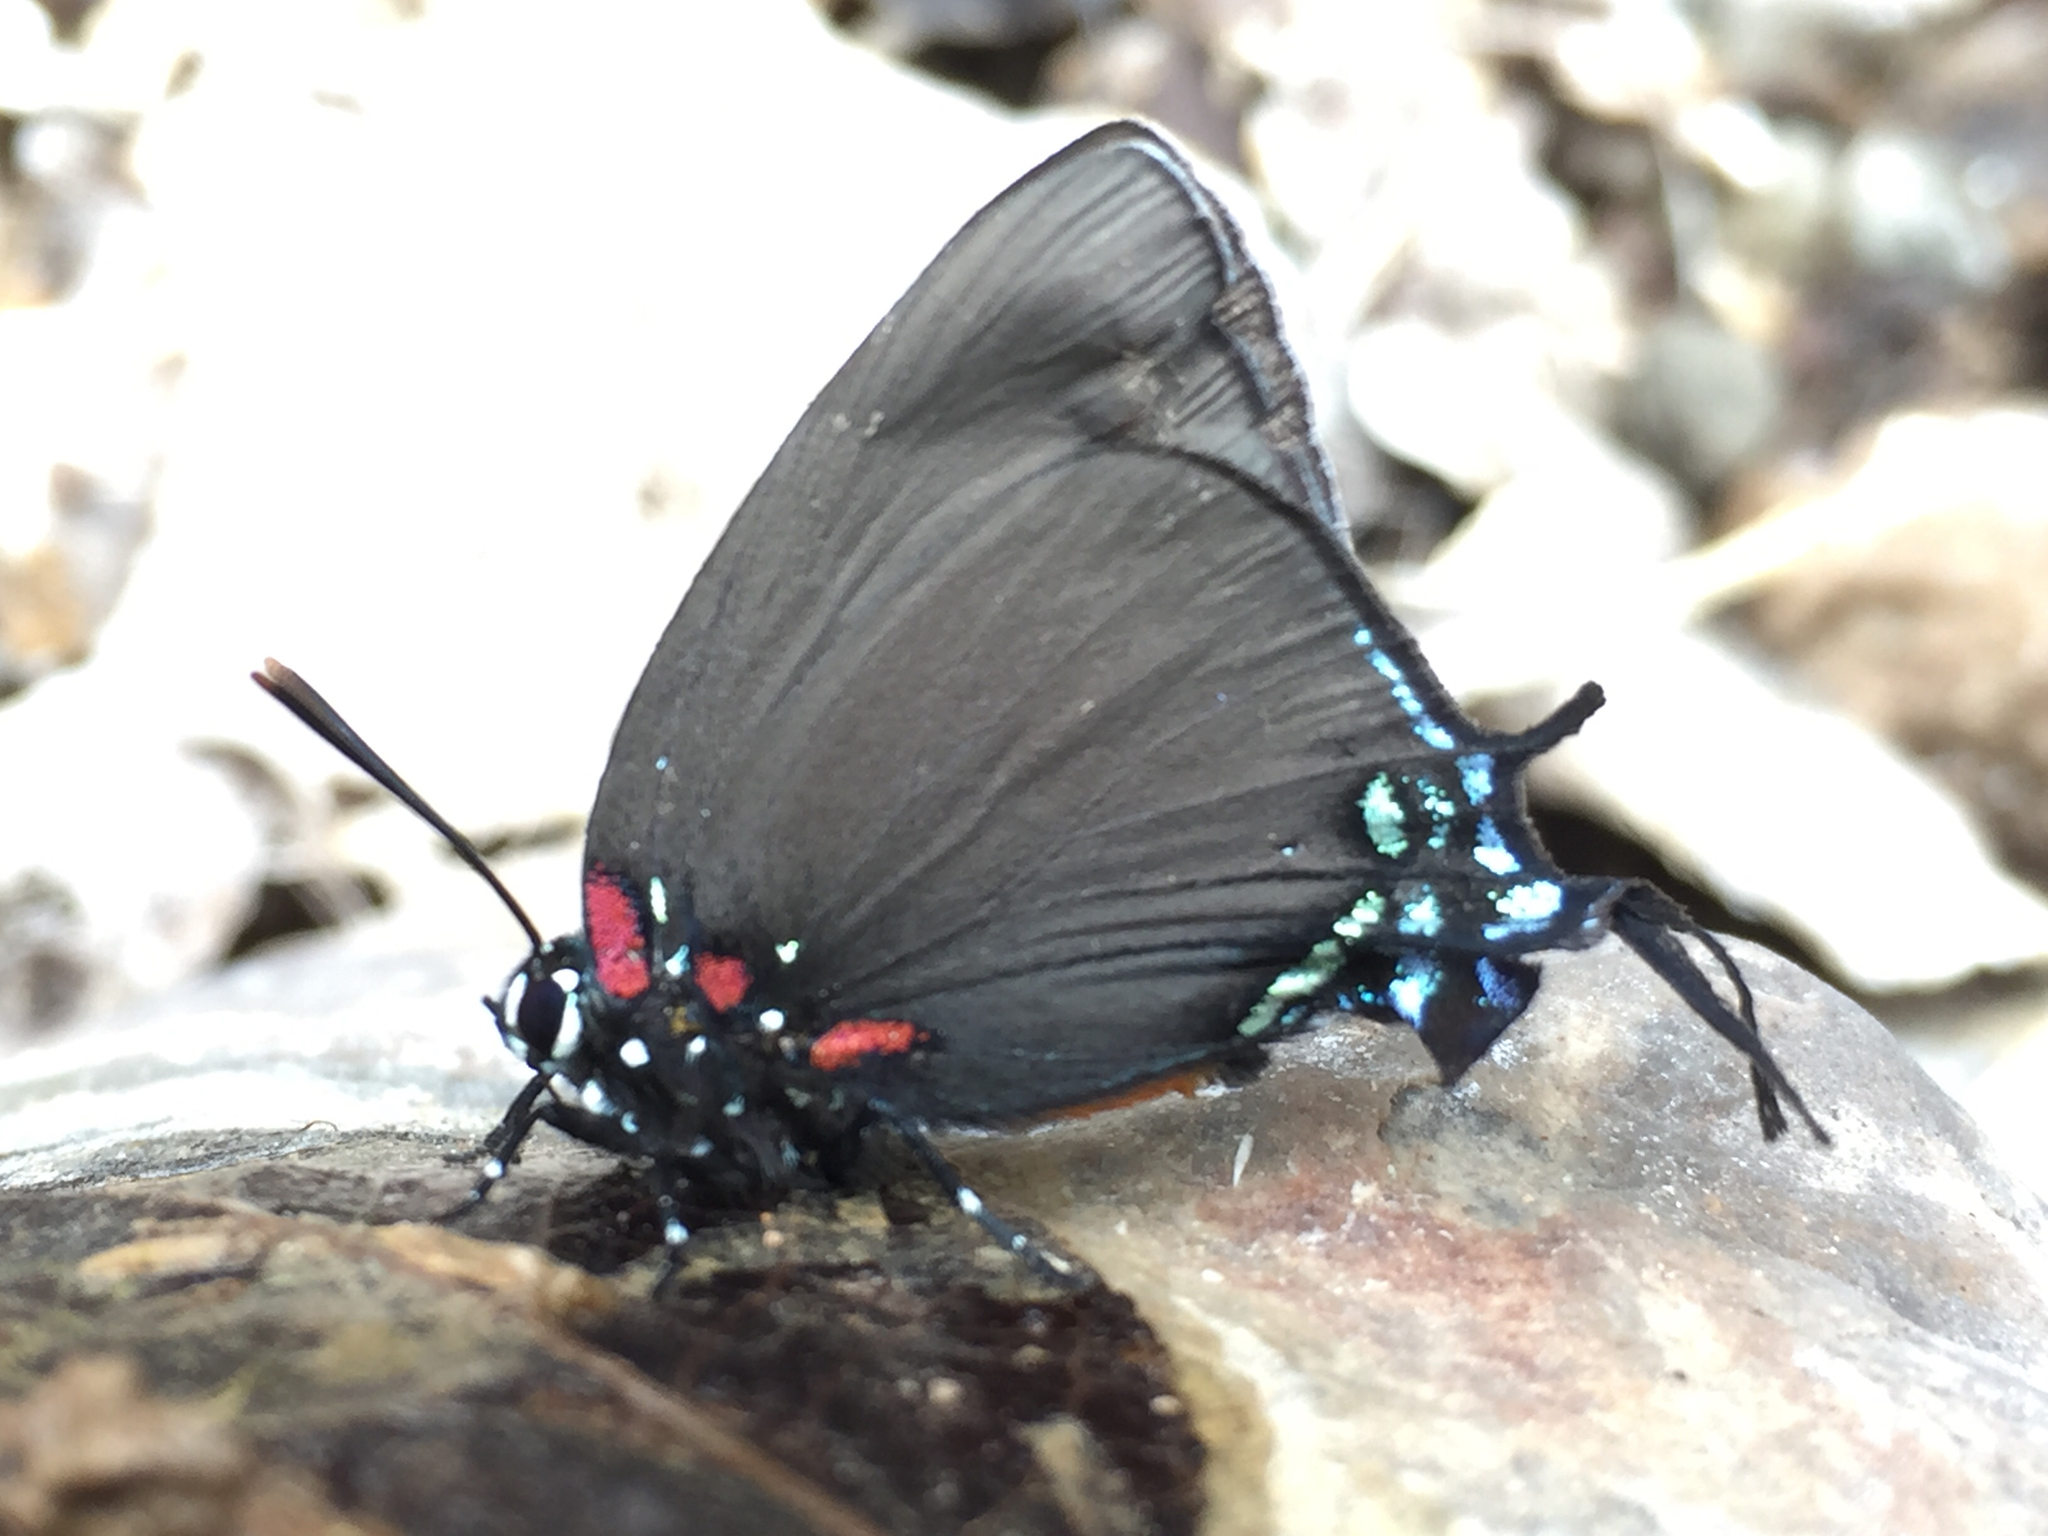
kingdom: Animalia
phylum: Arthropoda
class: Insecta
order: Lepidoptera
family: Lycaenidae
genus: Atlides
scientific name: Atlides halesus
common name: Great purple hairstreak
